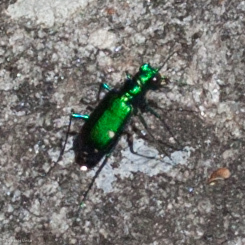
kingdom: Animalia
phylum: Arthropoda
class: Insecta
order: Coleoptera
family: Carabidae
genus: Cicindela
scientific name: Cicindela sexguttata
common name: Six-spotted tiger beetle
